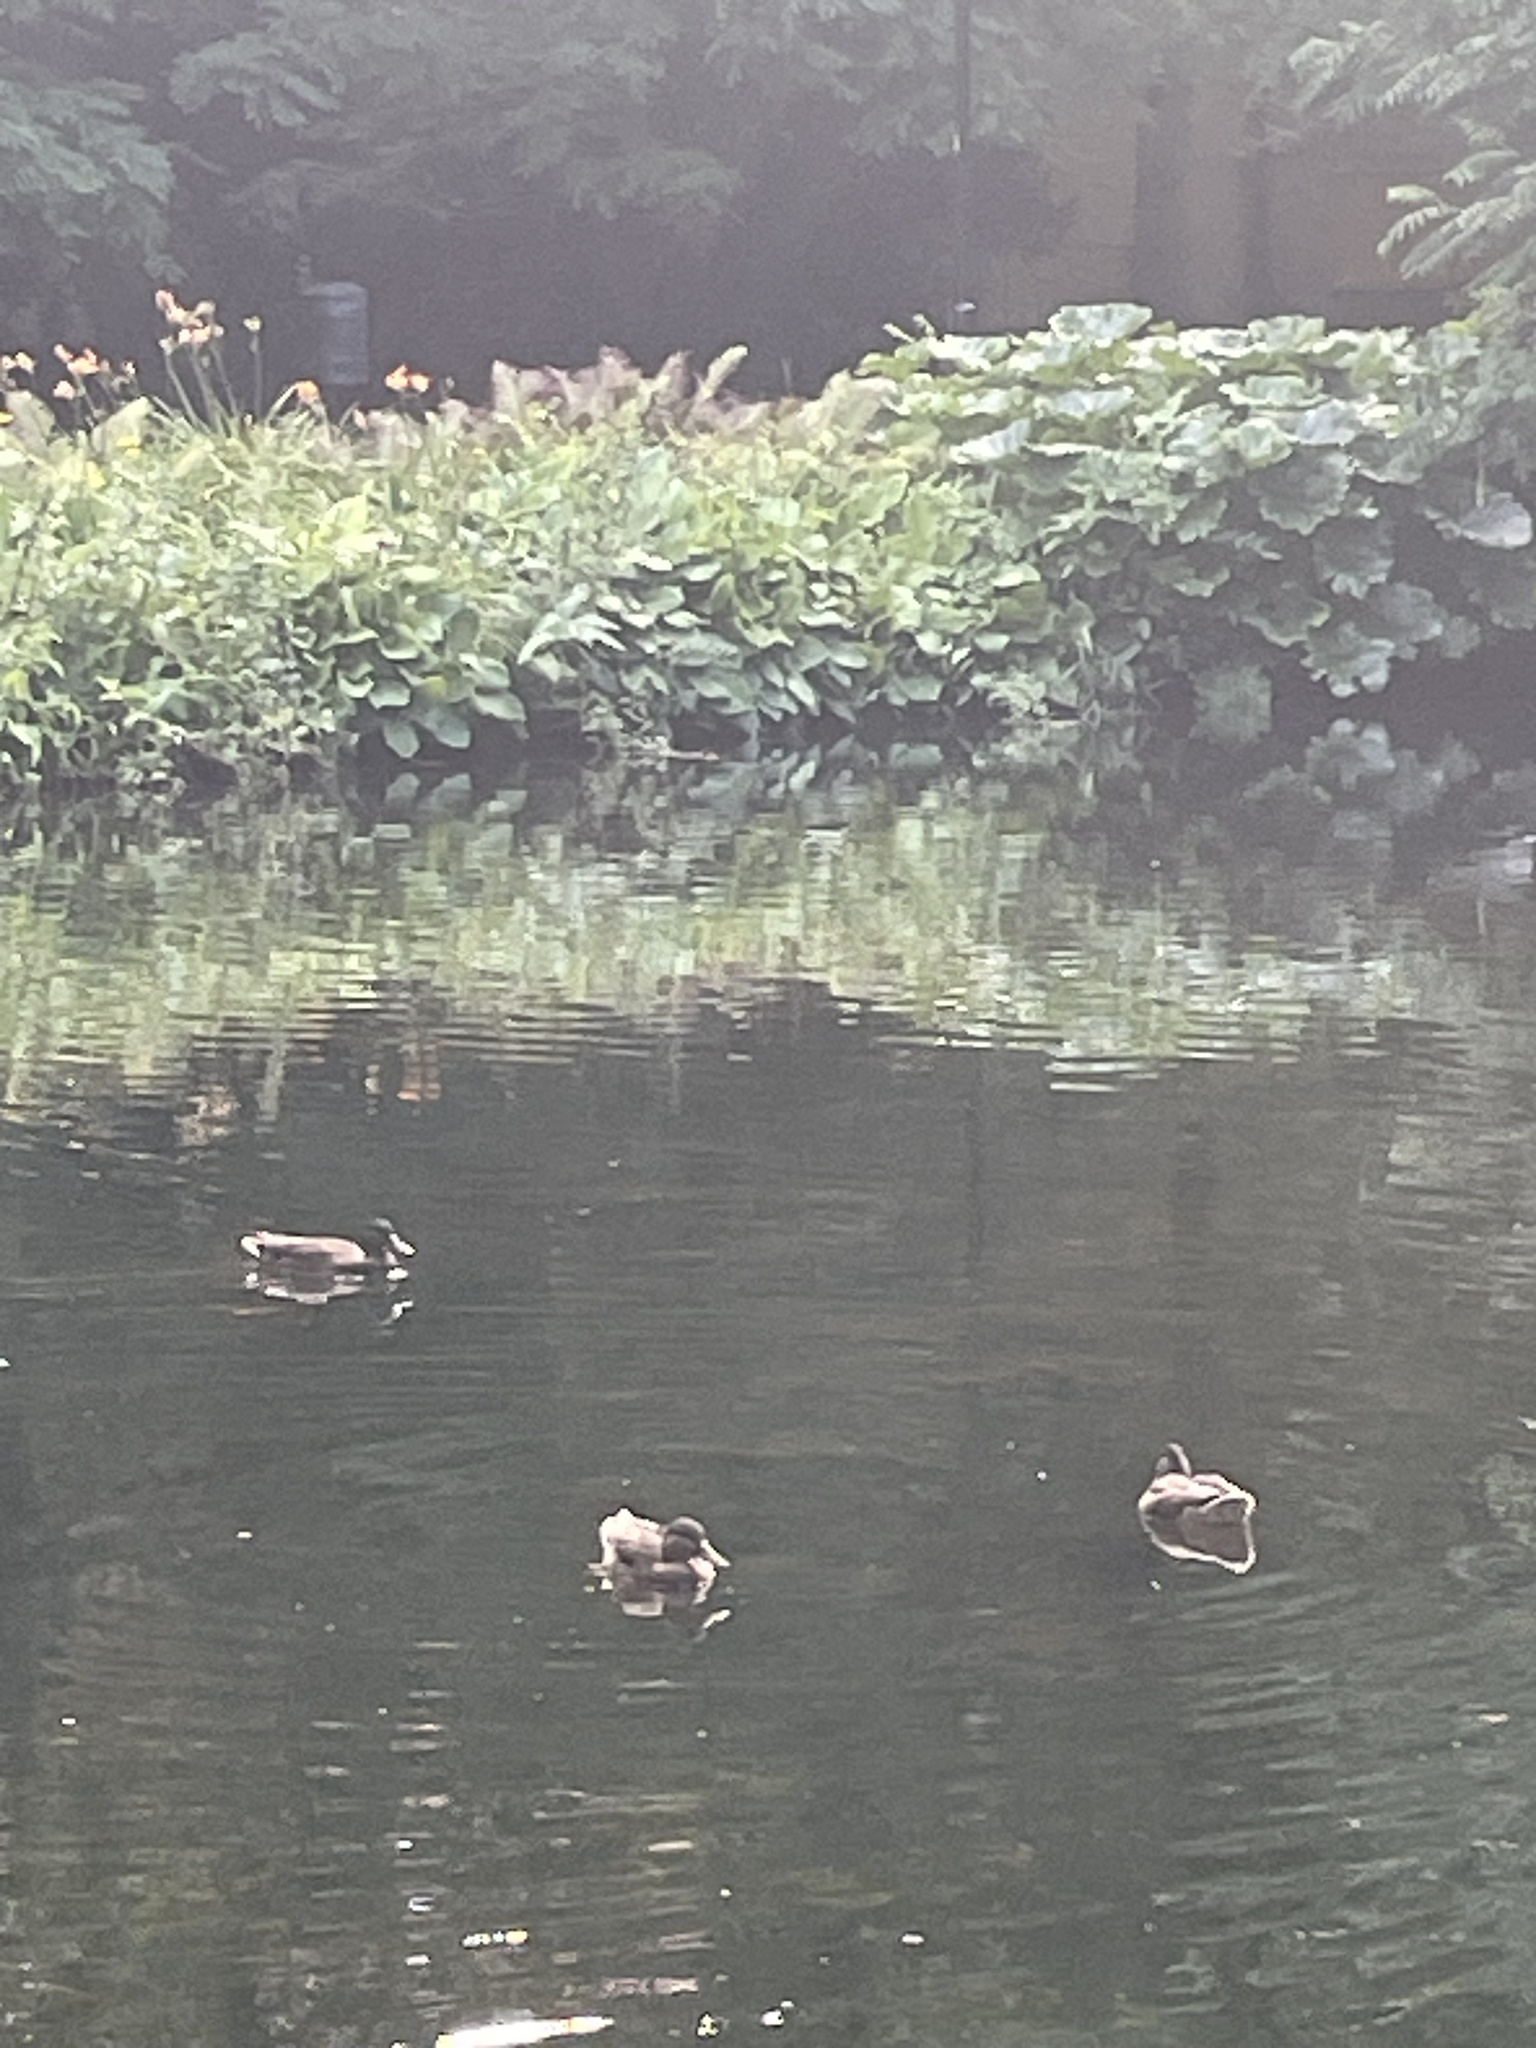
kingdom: Animalia
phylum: Chordata
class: Aves
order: Anseriformes
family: Anatidae
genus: Anas
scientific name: Anas platyrhynchos
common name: Mallard
